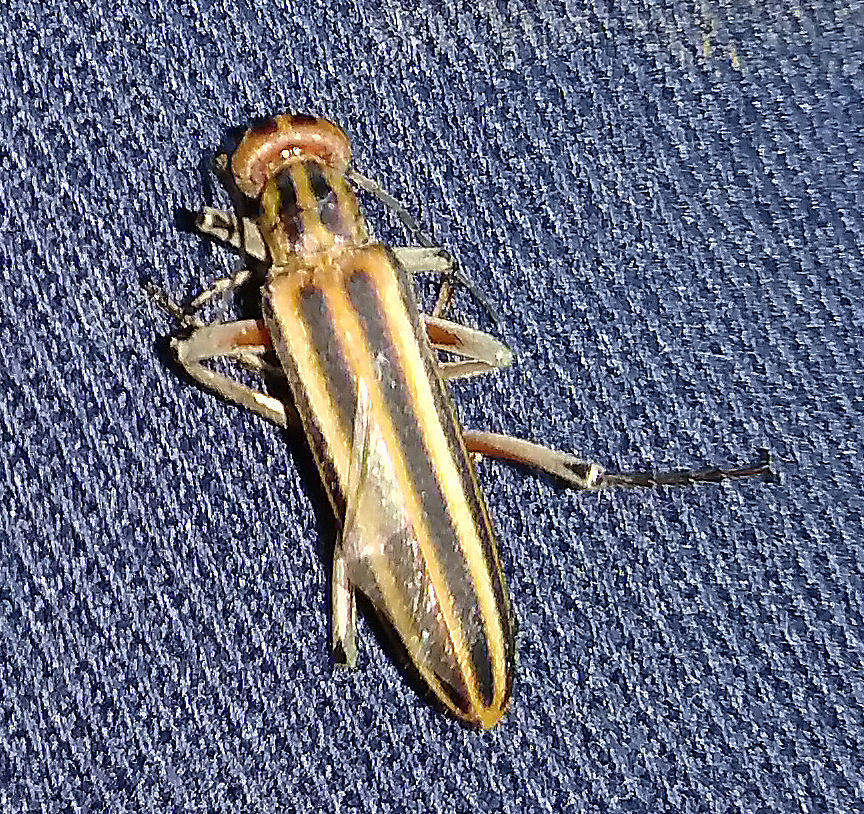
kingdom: Animalia
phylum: Arthropoda
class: Insecta
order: Coleoptera
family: Meloidae
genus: Epicauta
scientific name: Epicauta vittata
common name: Old-fashioned potato beetle
